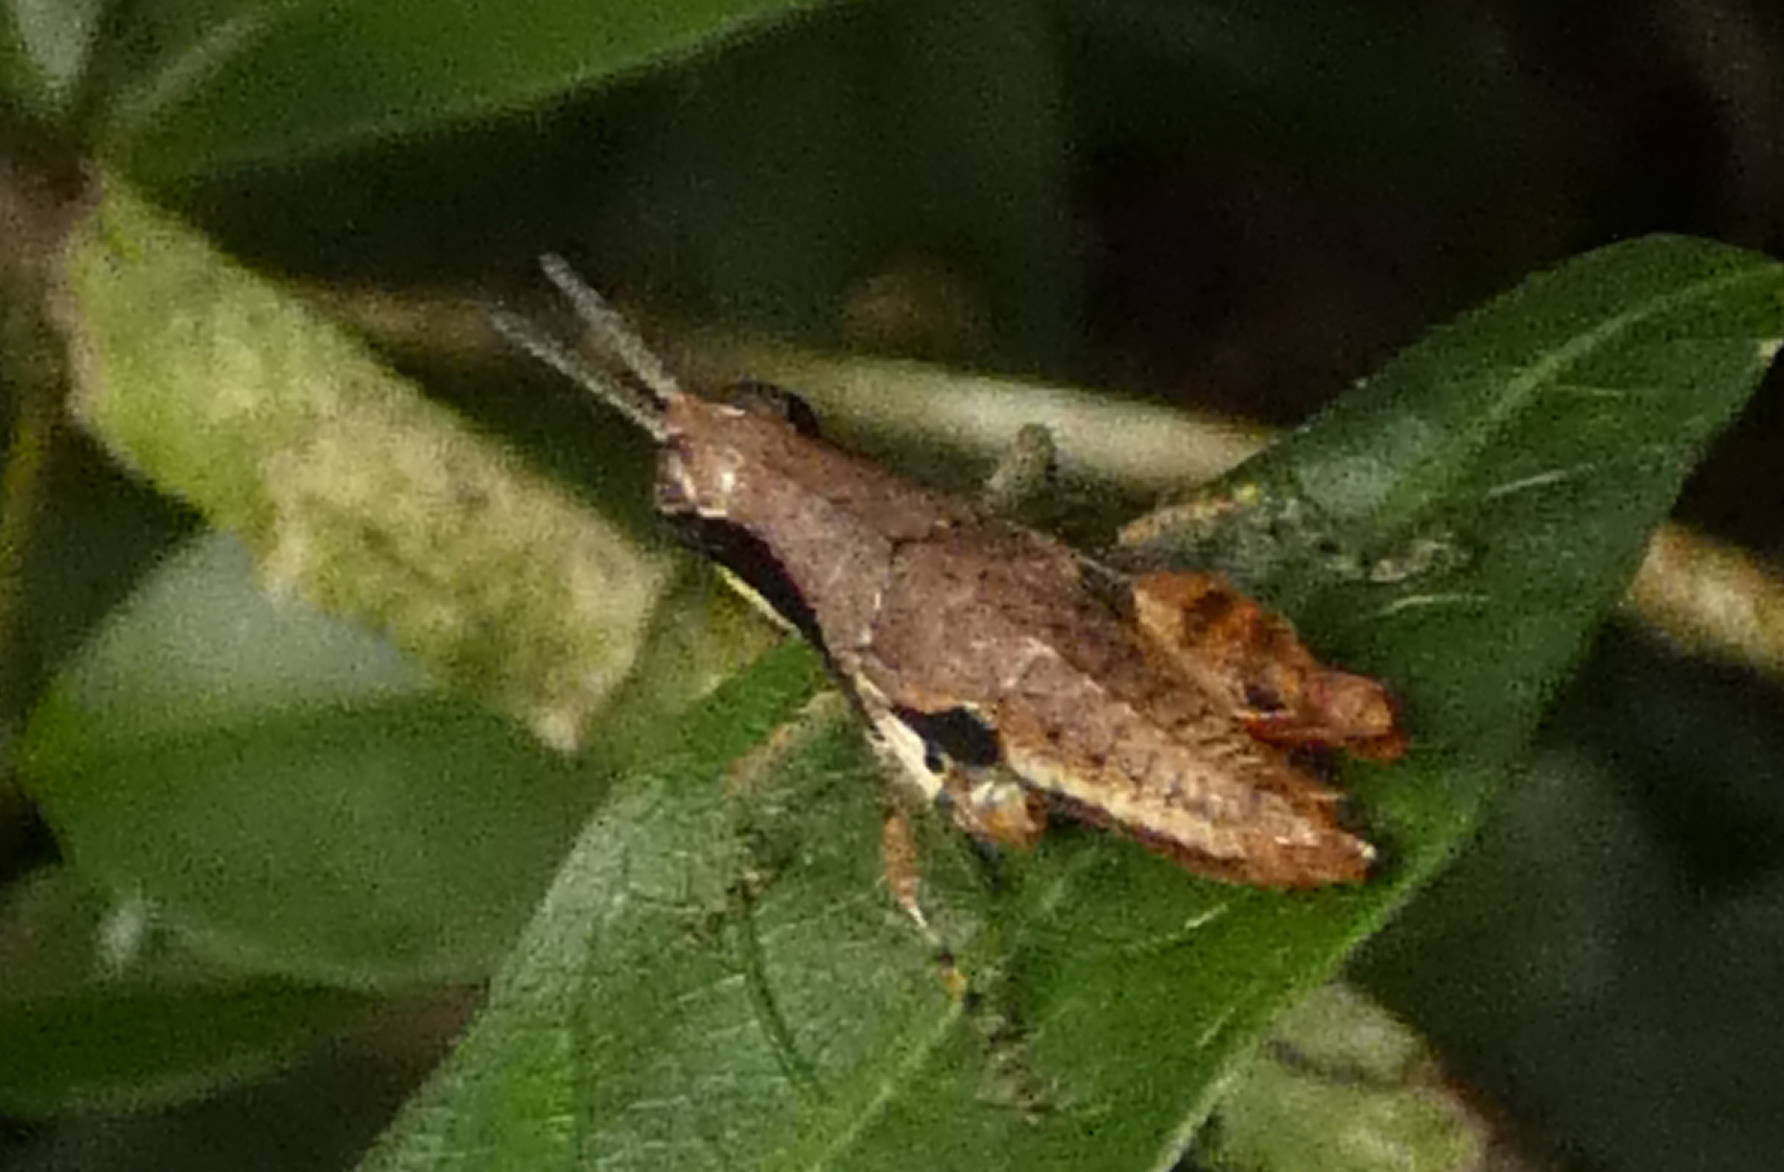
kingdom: Animalia
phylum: Arthropoda
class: Insecta
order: Orthoptera
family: Acrididae
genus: Eujivarus
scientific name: Eujivarus meridionalis
